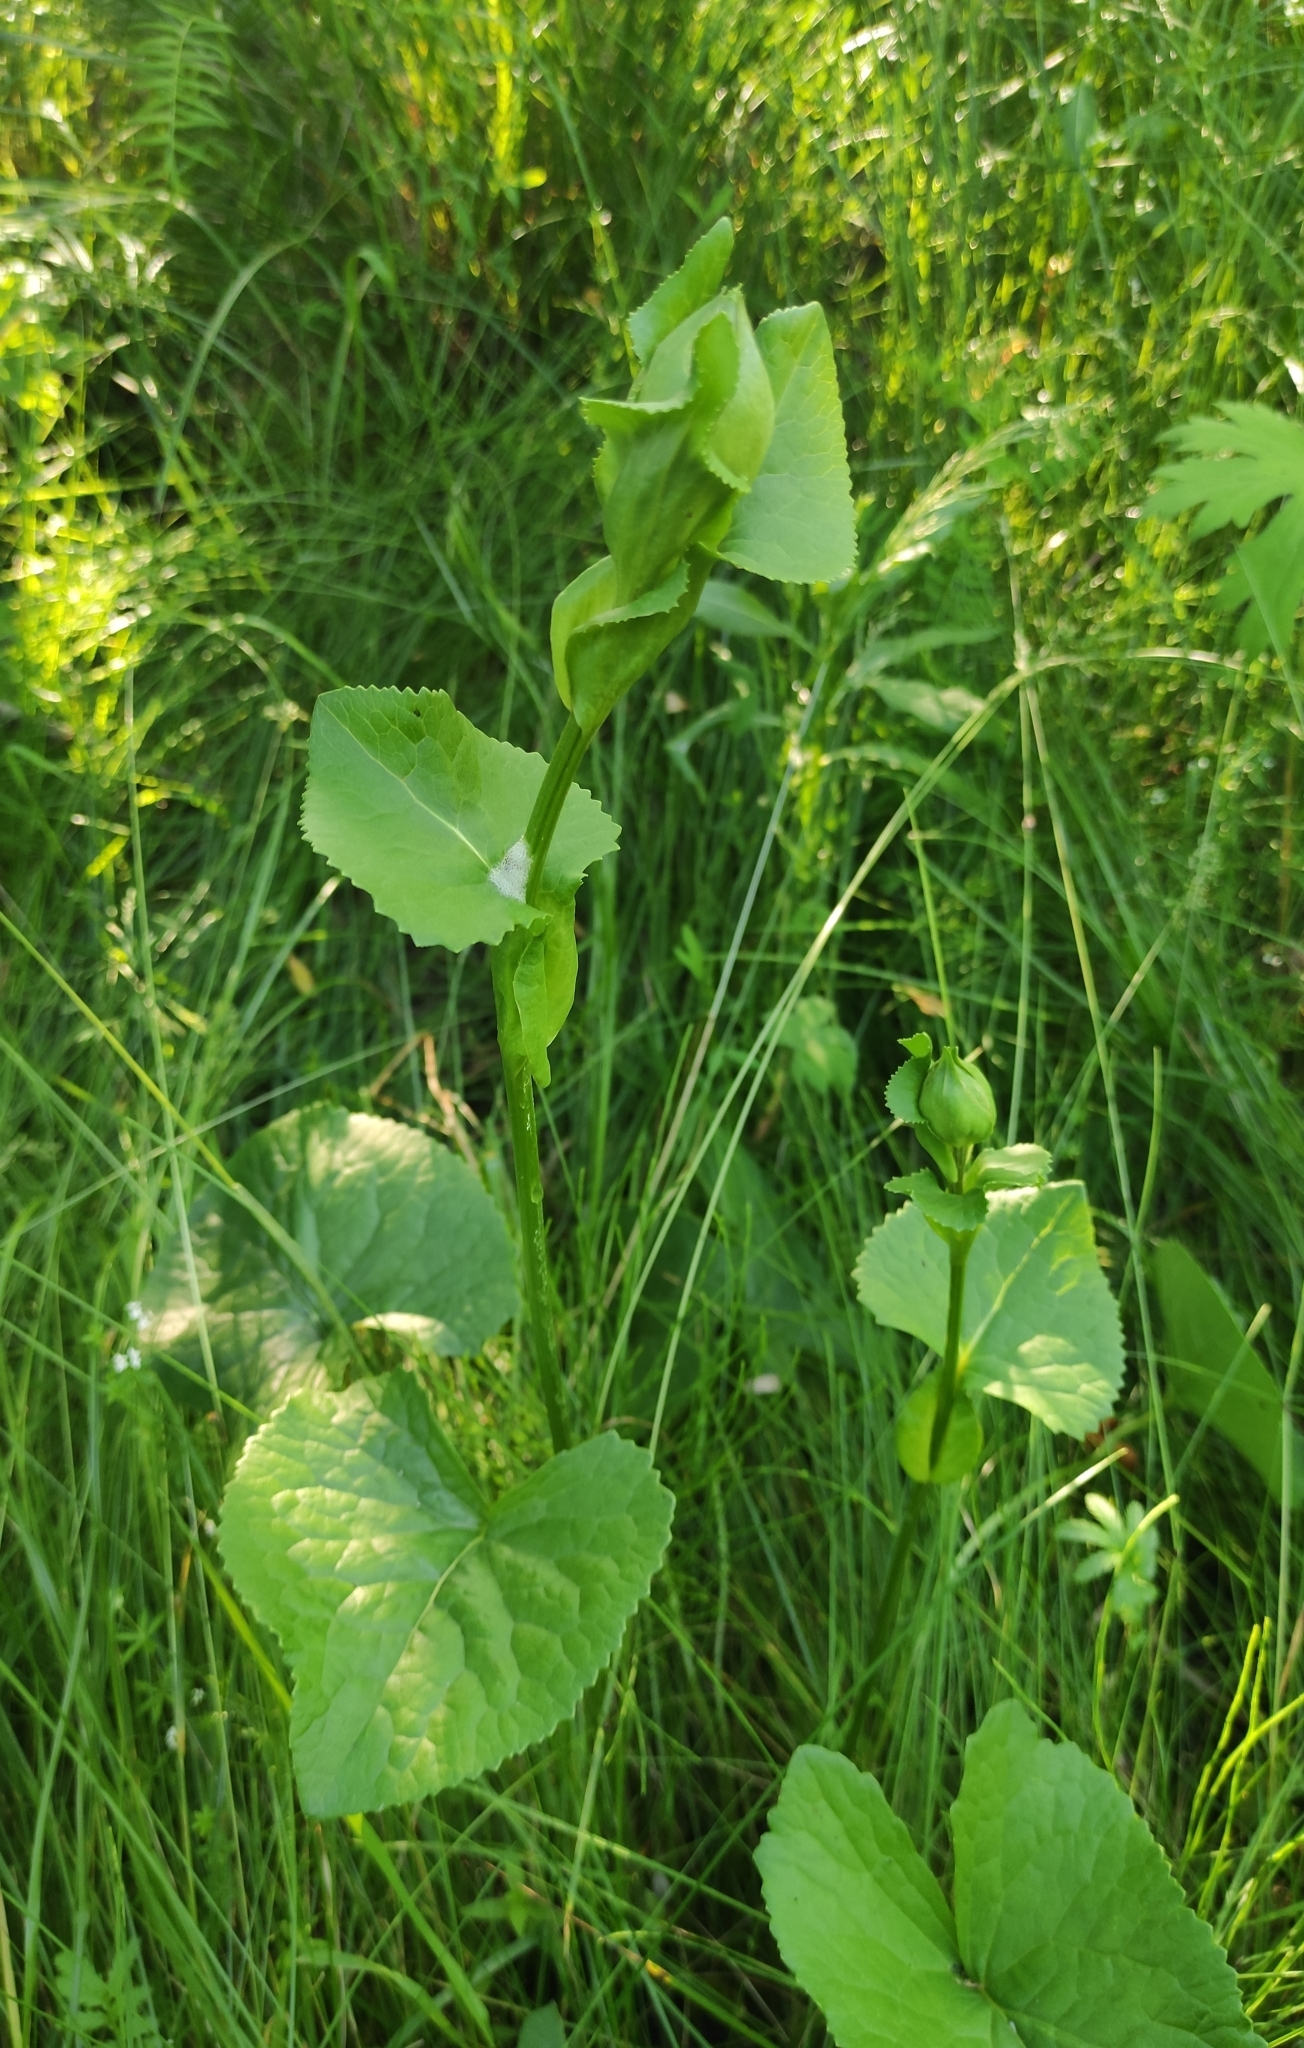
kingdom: Plantae
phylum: Tracheophyta
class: Magnoliopsida
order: Asterales
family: Asteraceae
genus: Ligularia
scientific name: Ligularia sibirica
